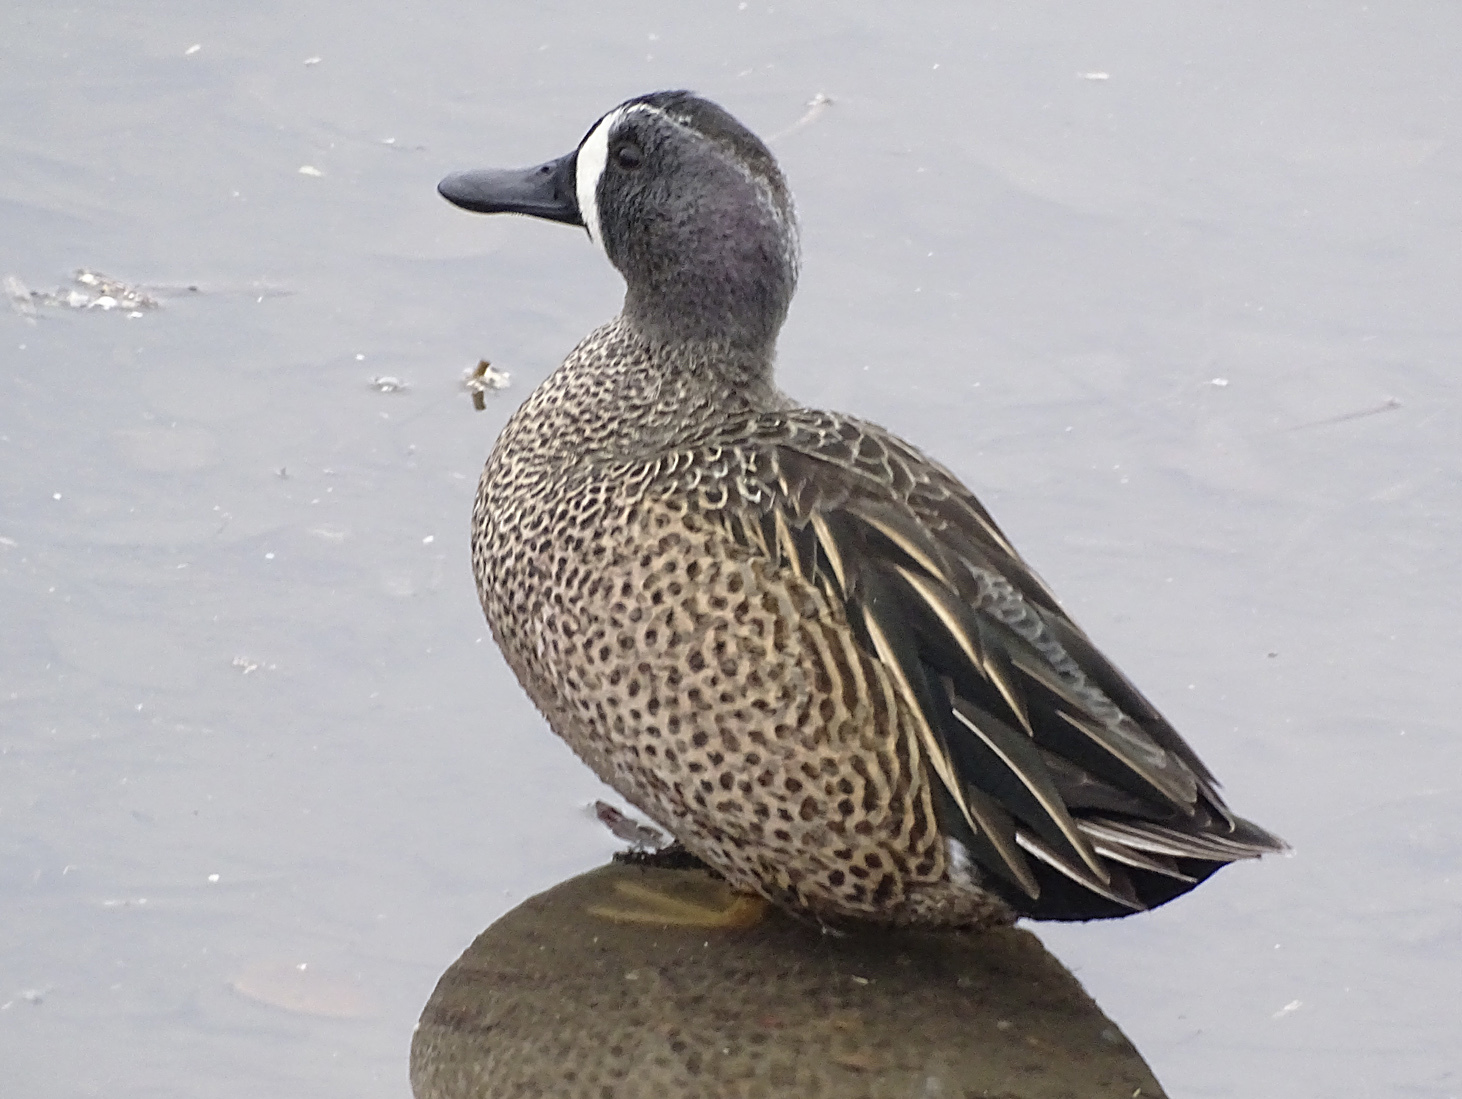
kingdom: Animalia
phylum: Chordata
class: Aves
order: Anseriformes
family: Anatidae
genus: Spatula
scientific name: Spatula discors
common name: Blue-winged teal
